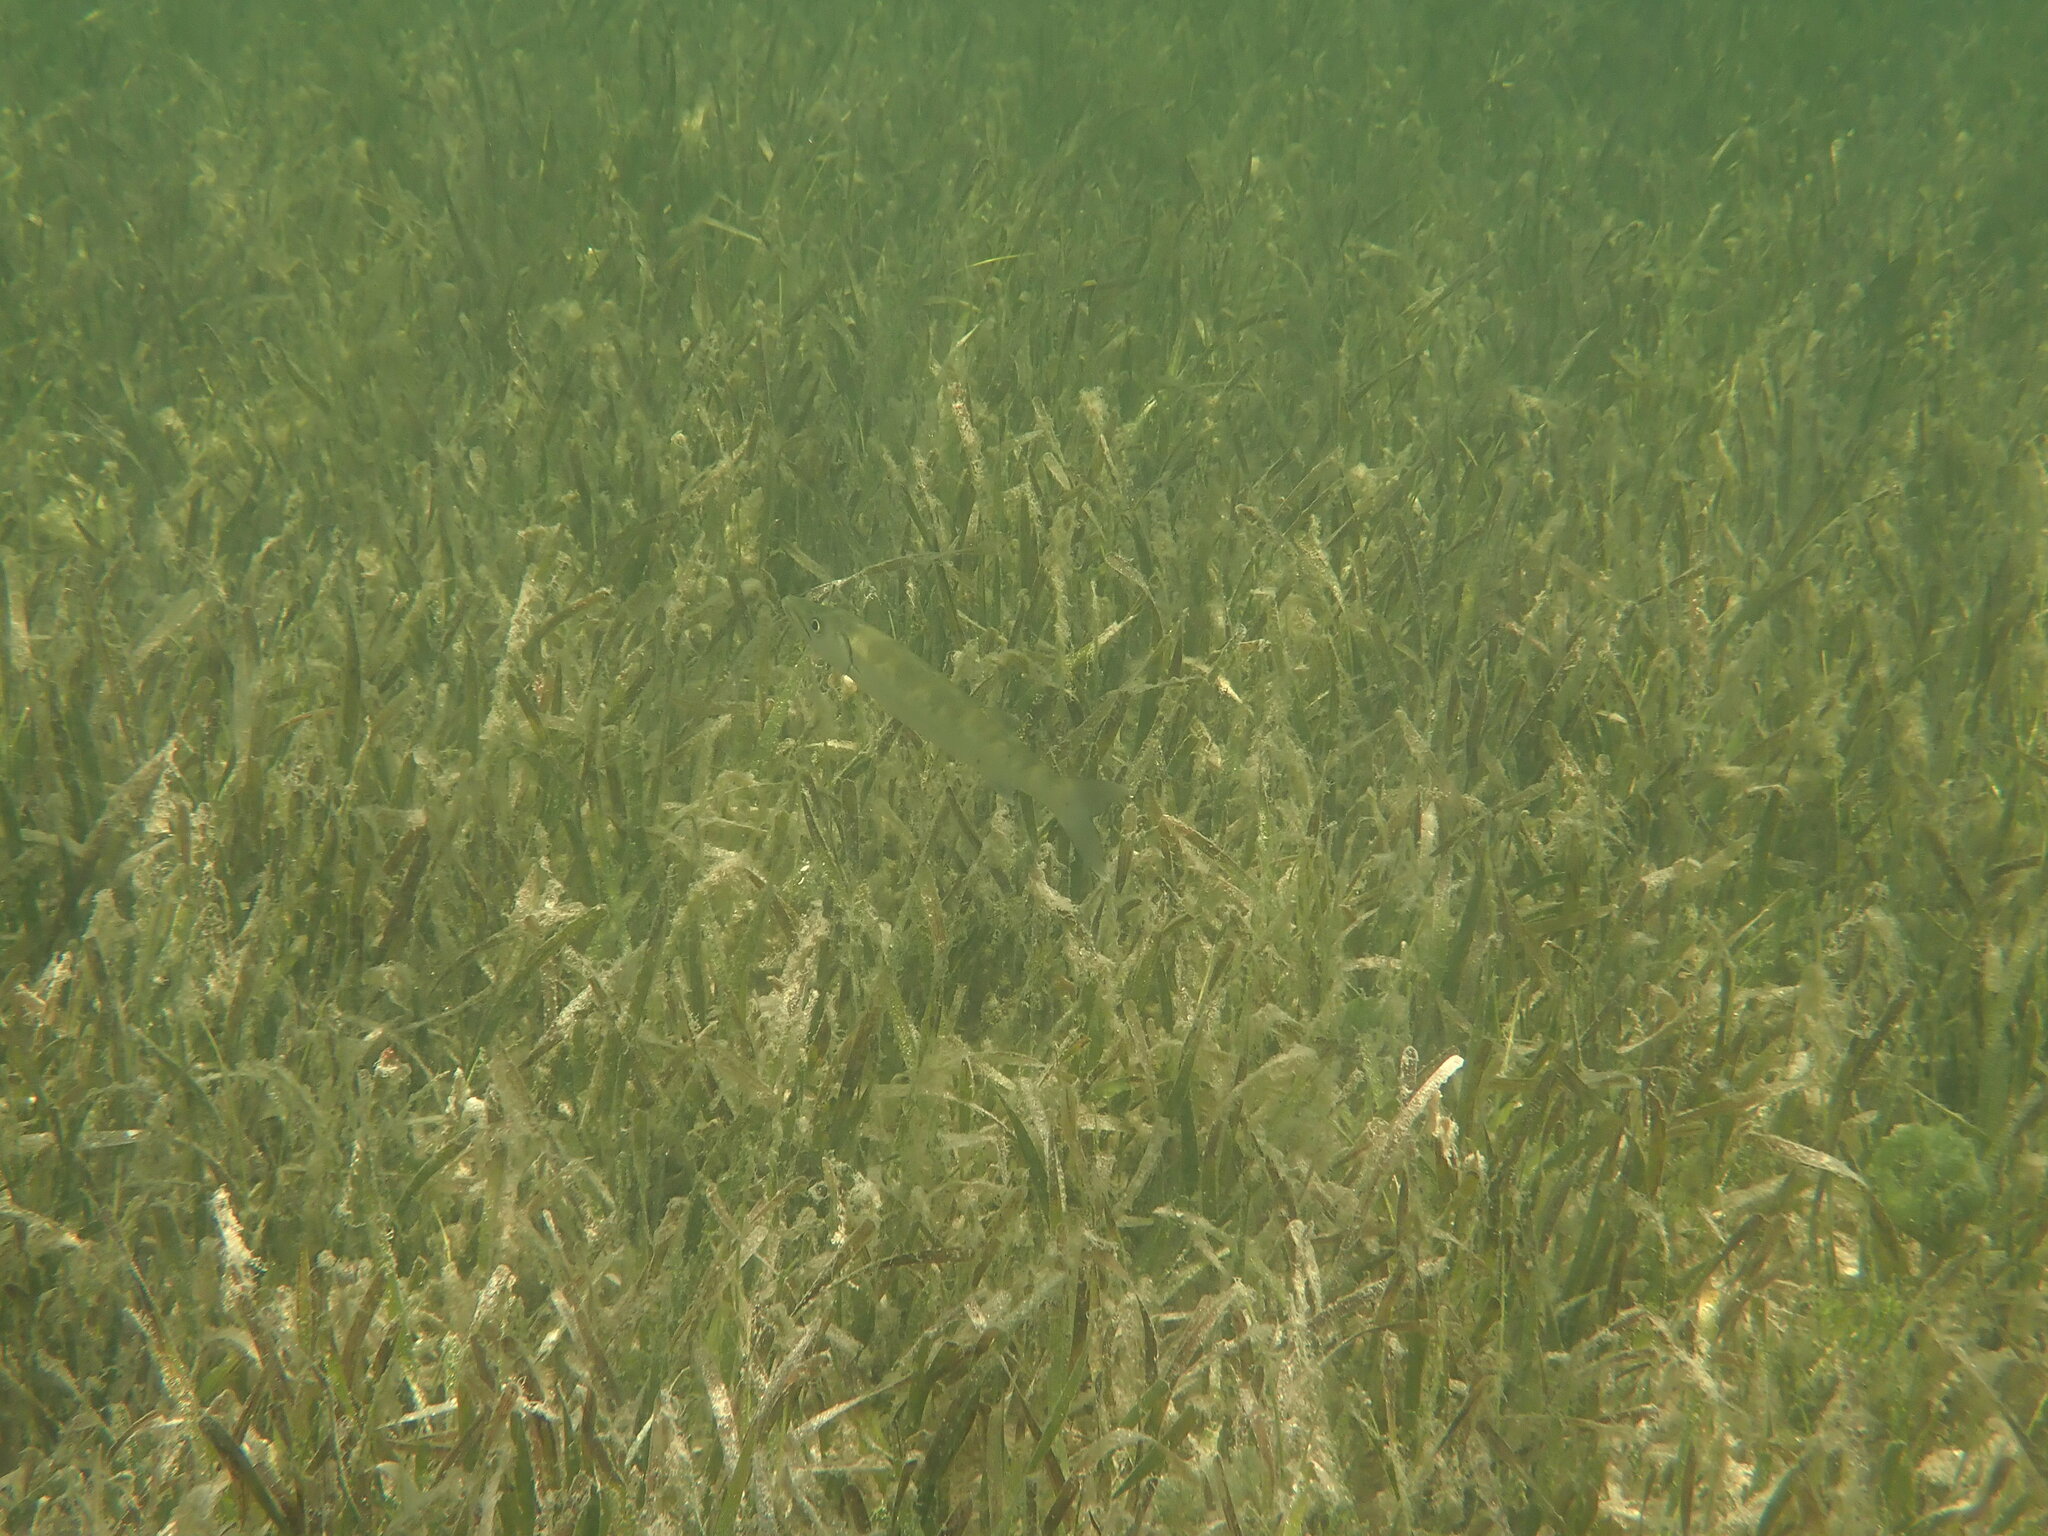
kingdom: Animalia
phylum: Chordata
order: Perciformes
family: Sphyraenidae
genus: Sphyraena
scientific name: Sphyraena barracuda
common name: Great barracuda
